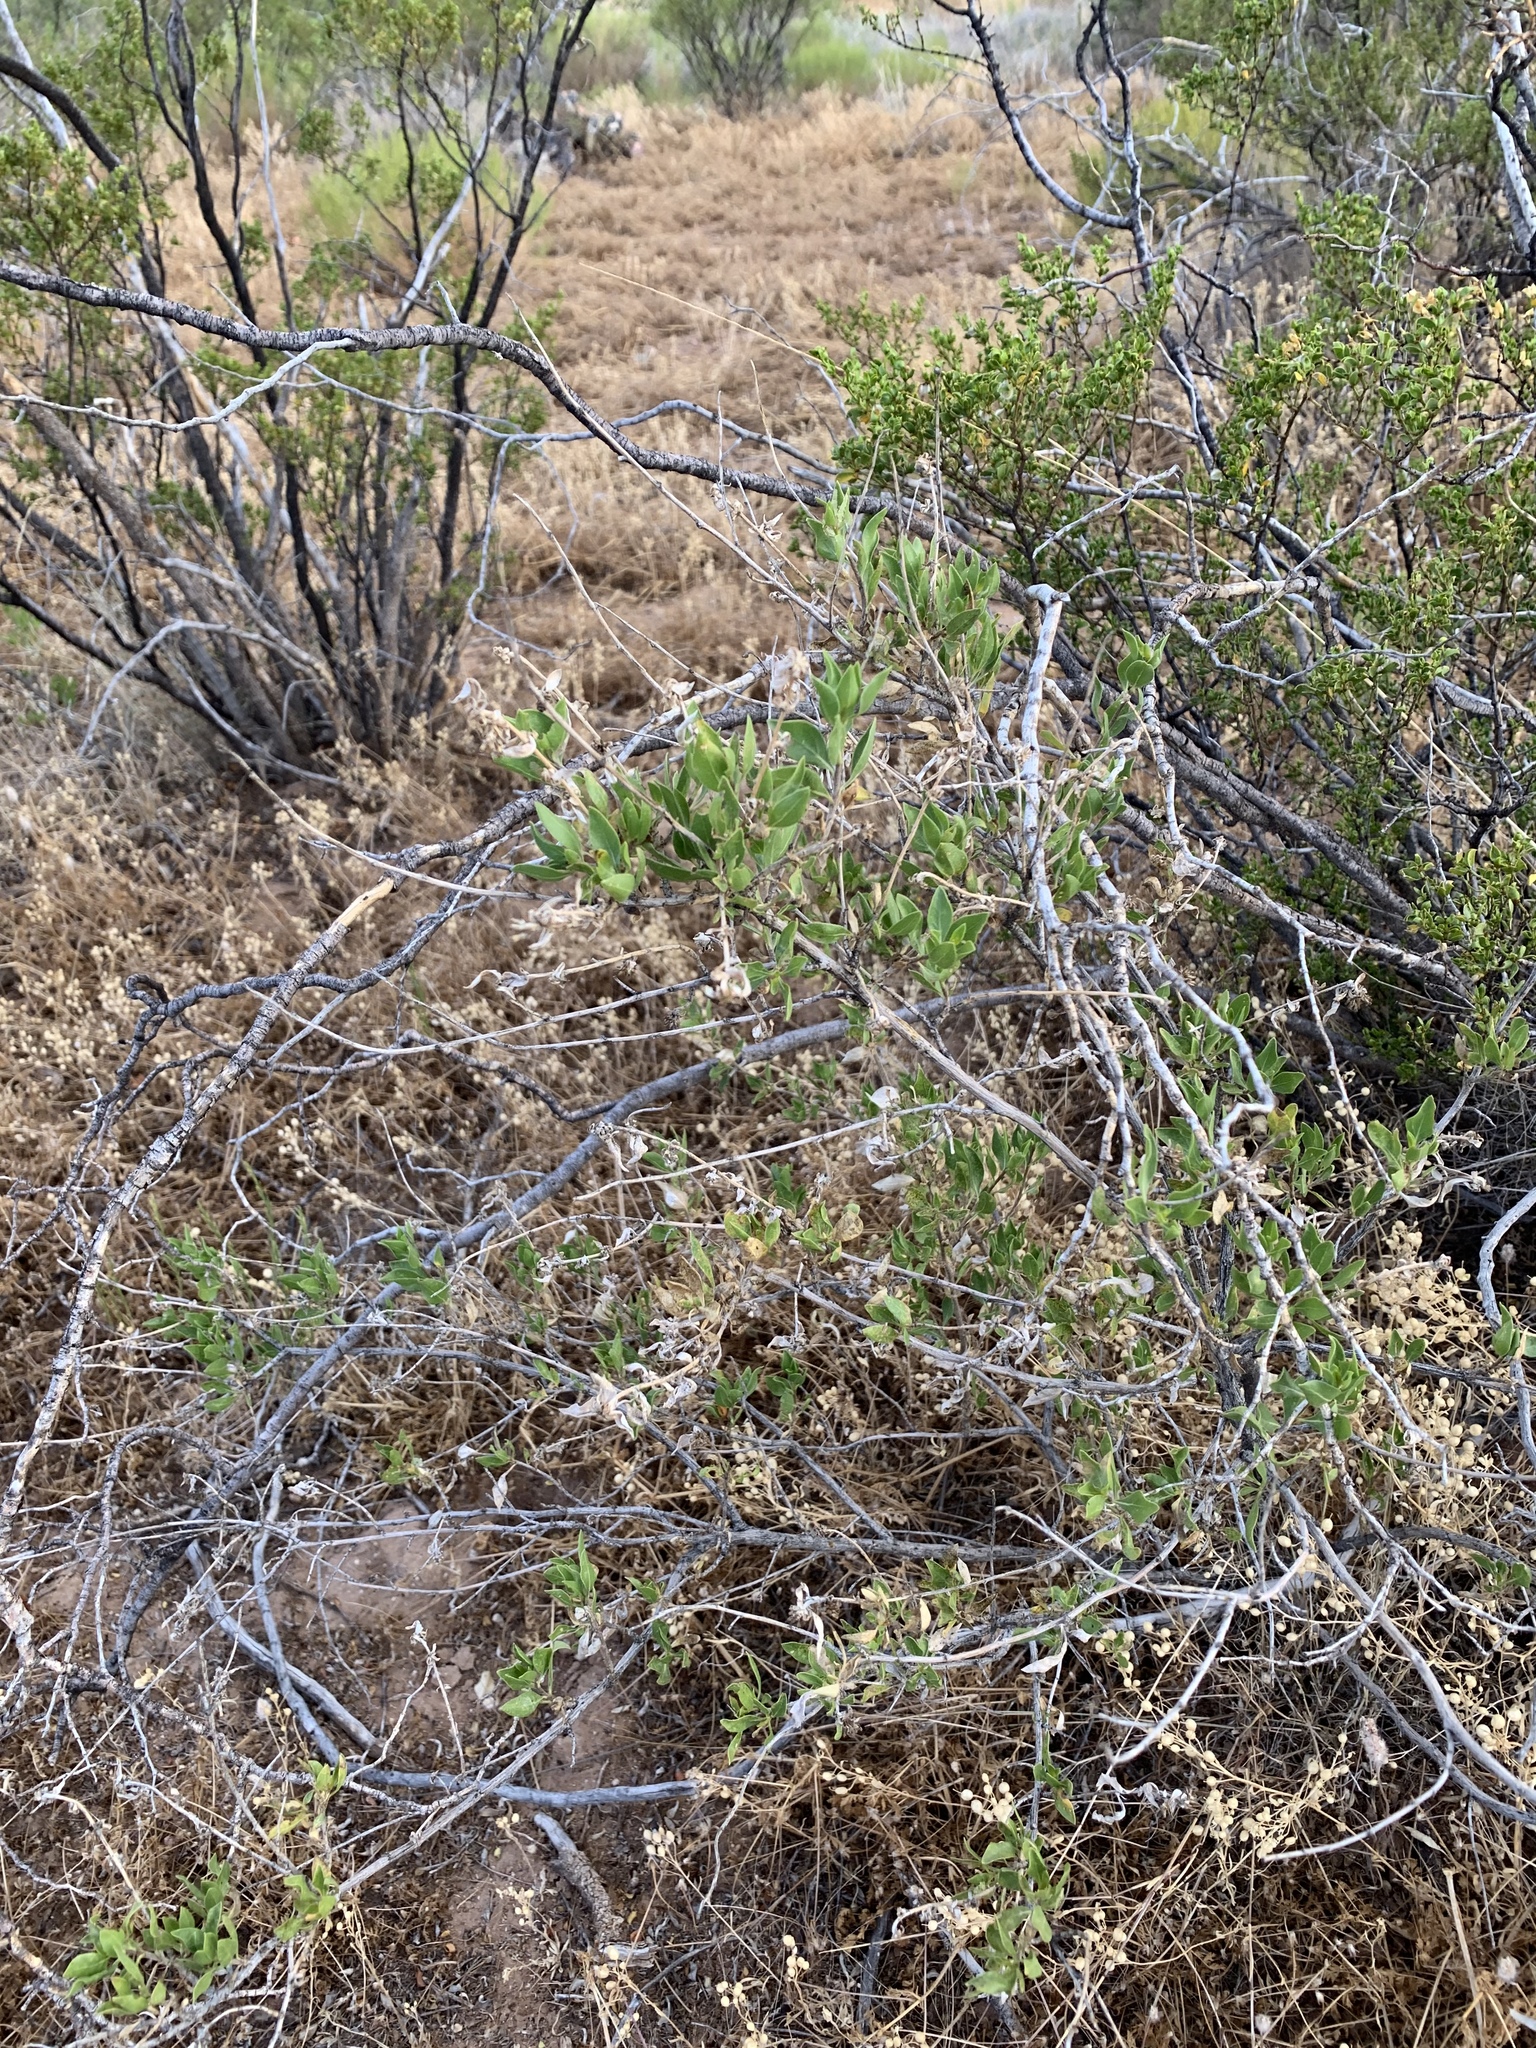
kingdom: Plantae
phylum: Tracheophyta
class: Magnoliopsida
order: Asterales
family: Asteraceae
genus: Flourensia
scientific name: Flourensia cernua
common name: Varnishbush
